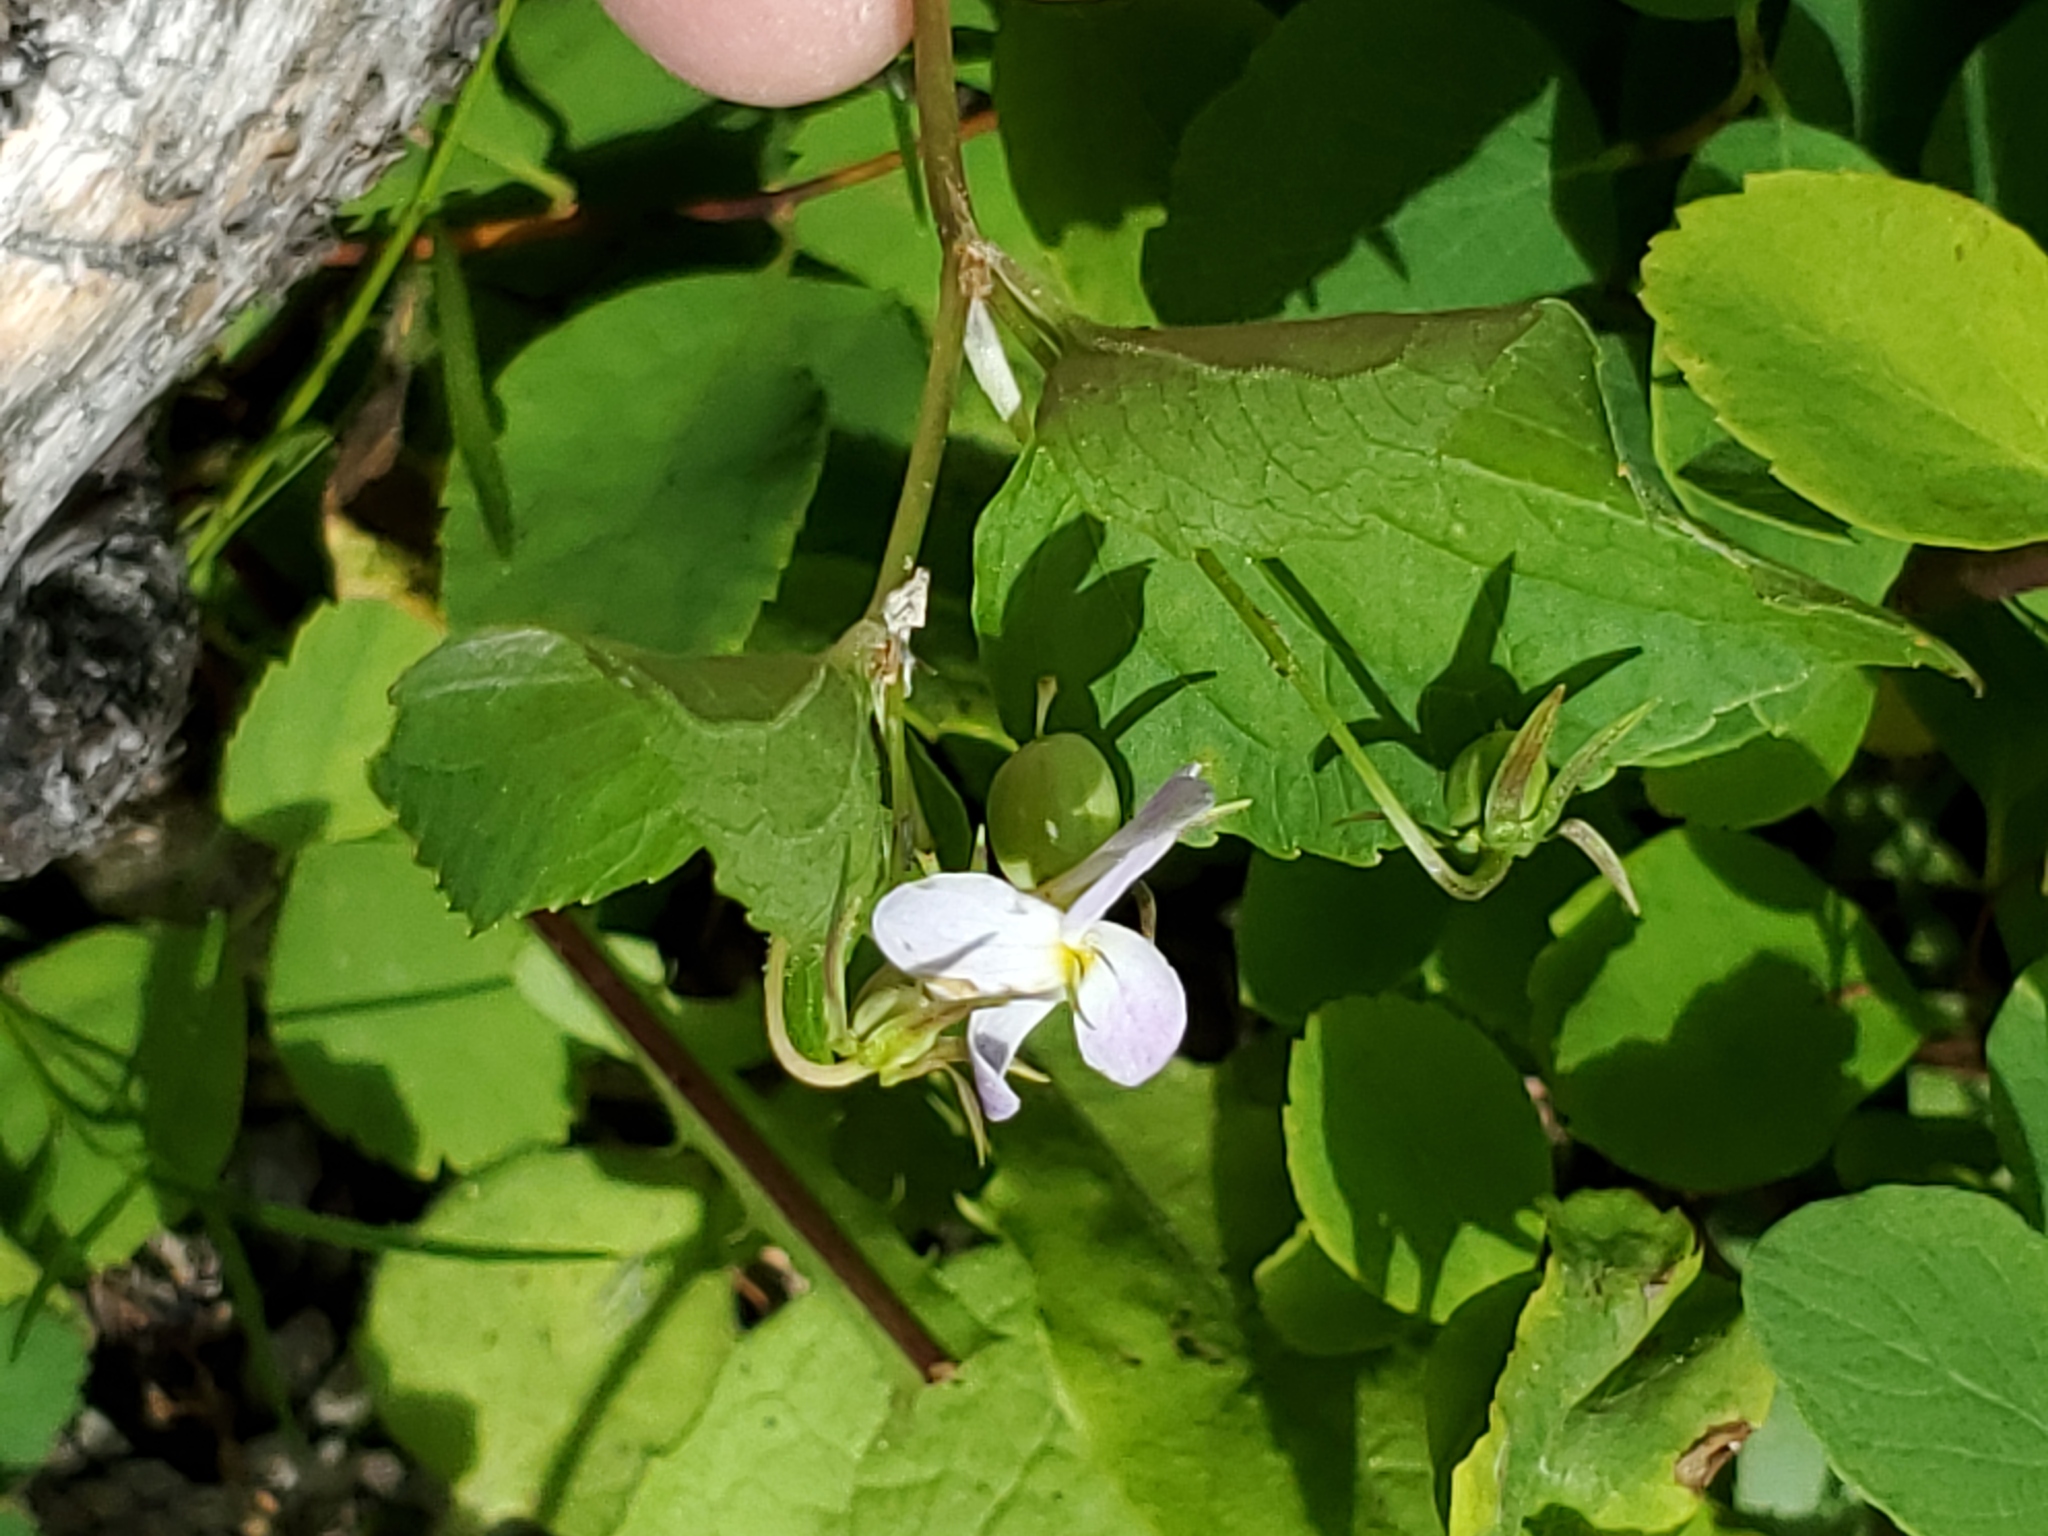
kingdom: Plantae
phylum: Tracheophyta
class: Magnoliopsida
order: Malpighiales
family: Violaceae
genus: Viola
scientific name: Viola canadensis
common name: Canada violet
